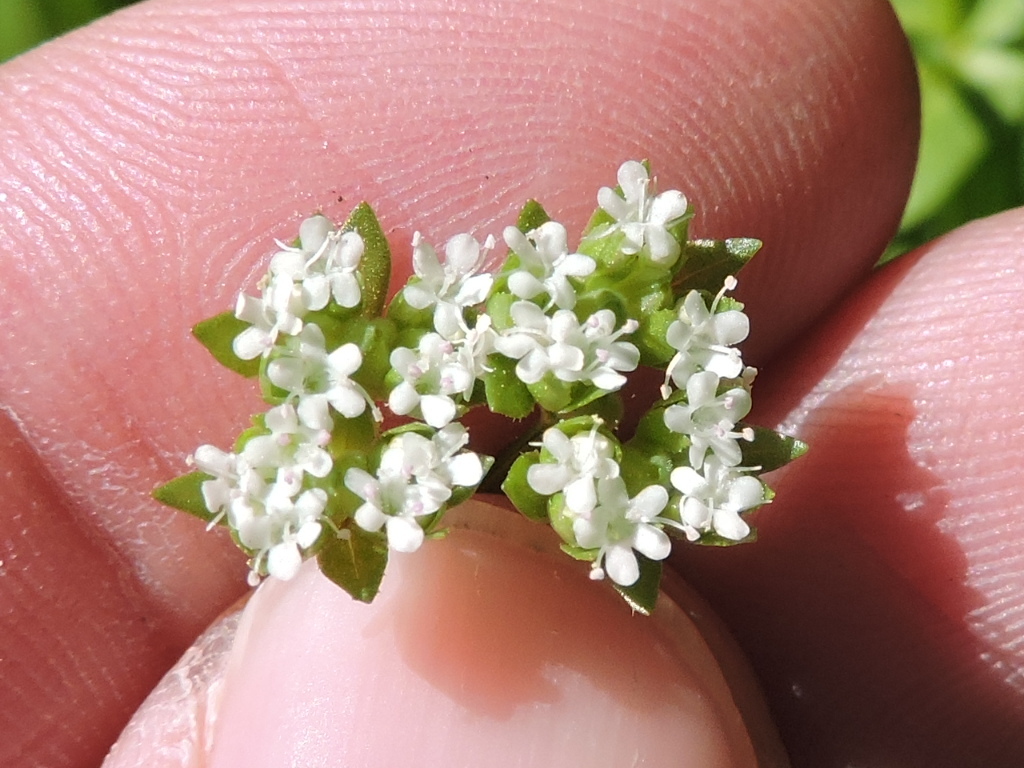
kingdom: Plantae
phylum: Tracheophyta
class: Magnoliopsida
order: Dipsacales
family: Caprifoliaceae
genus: Valerianella
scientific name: Valerianella radiata
